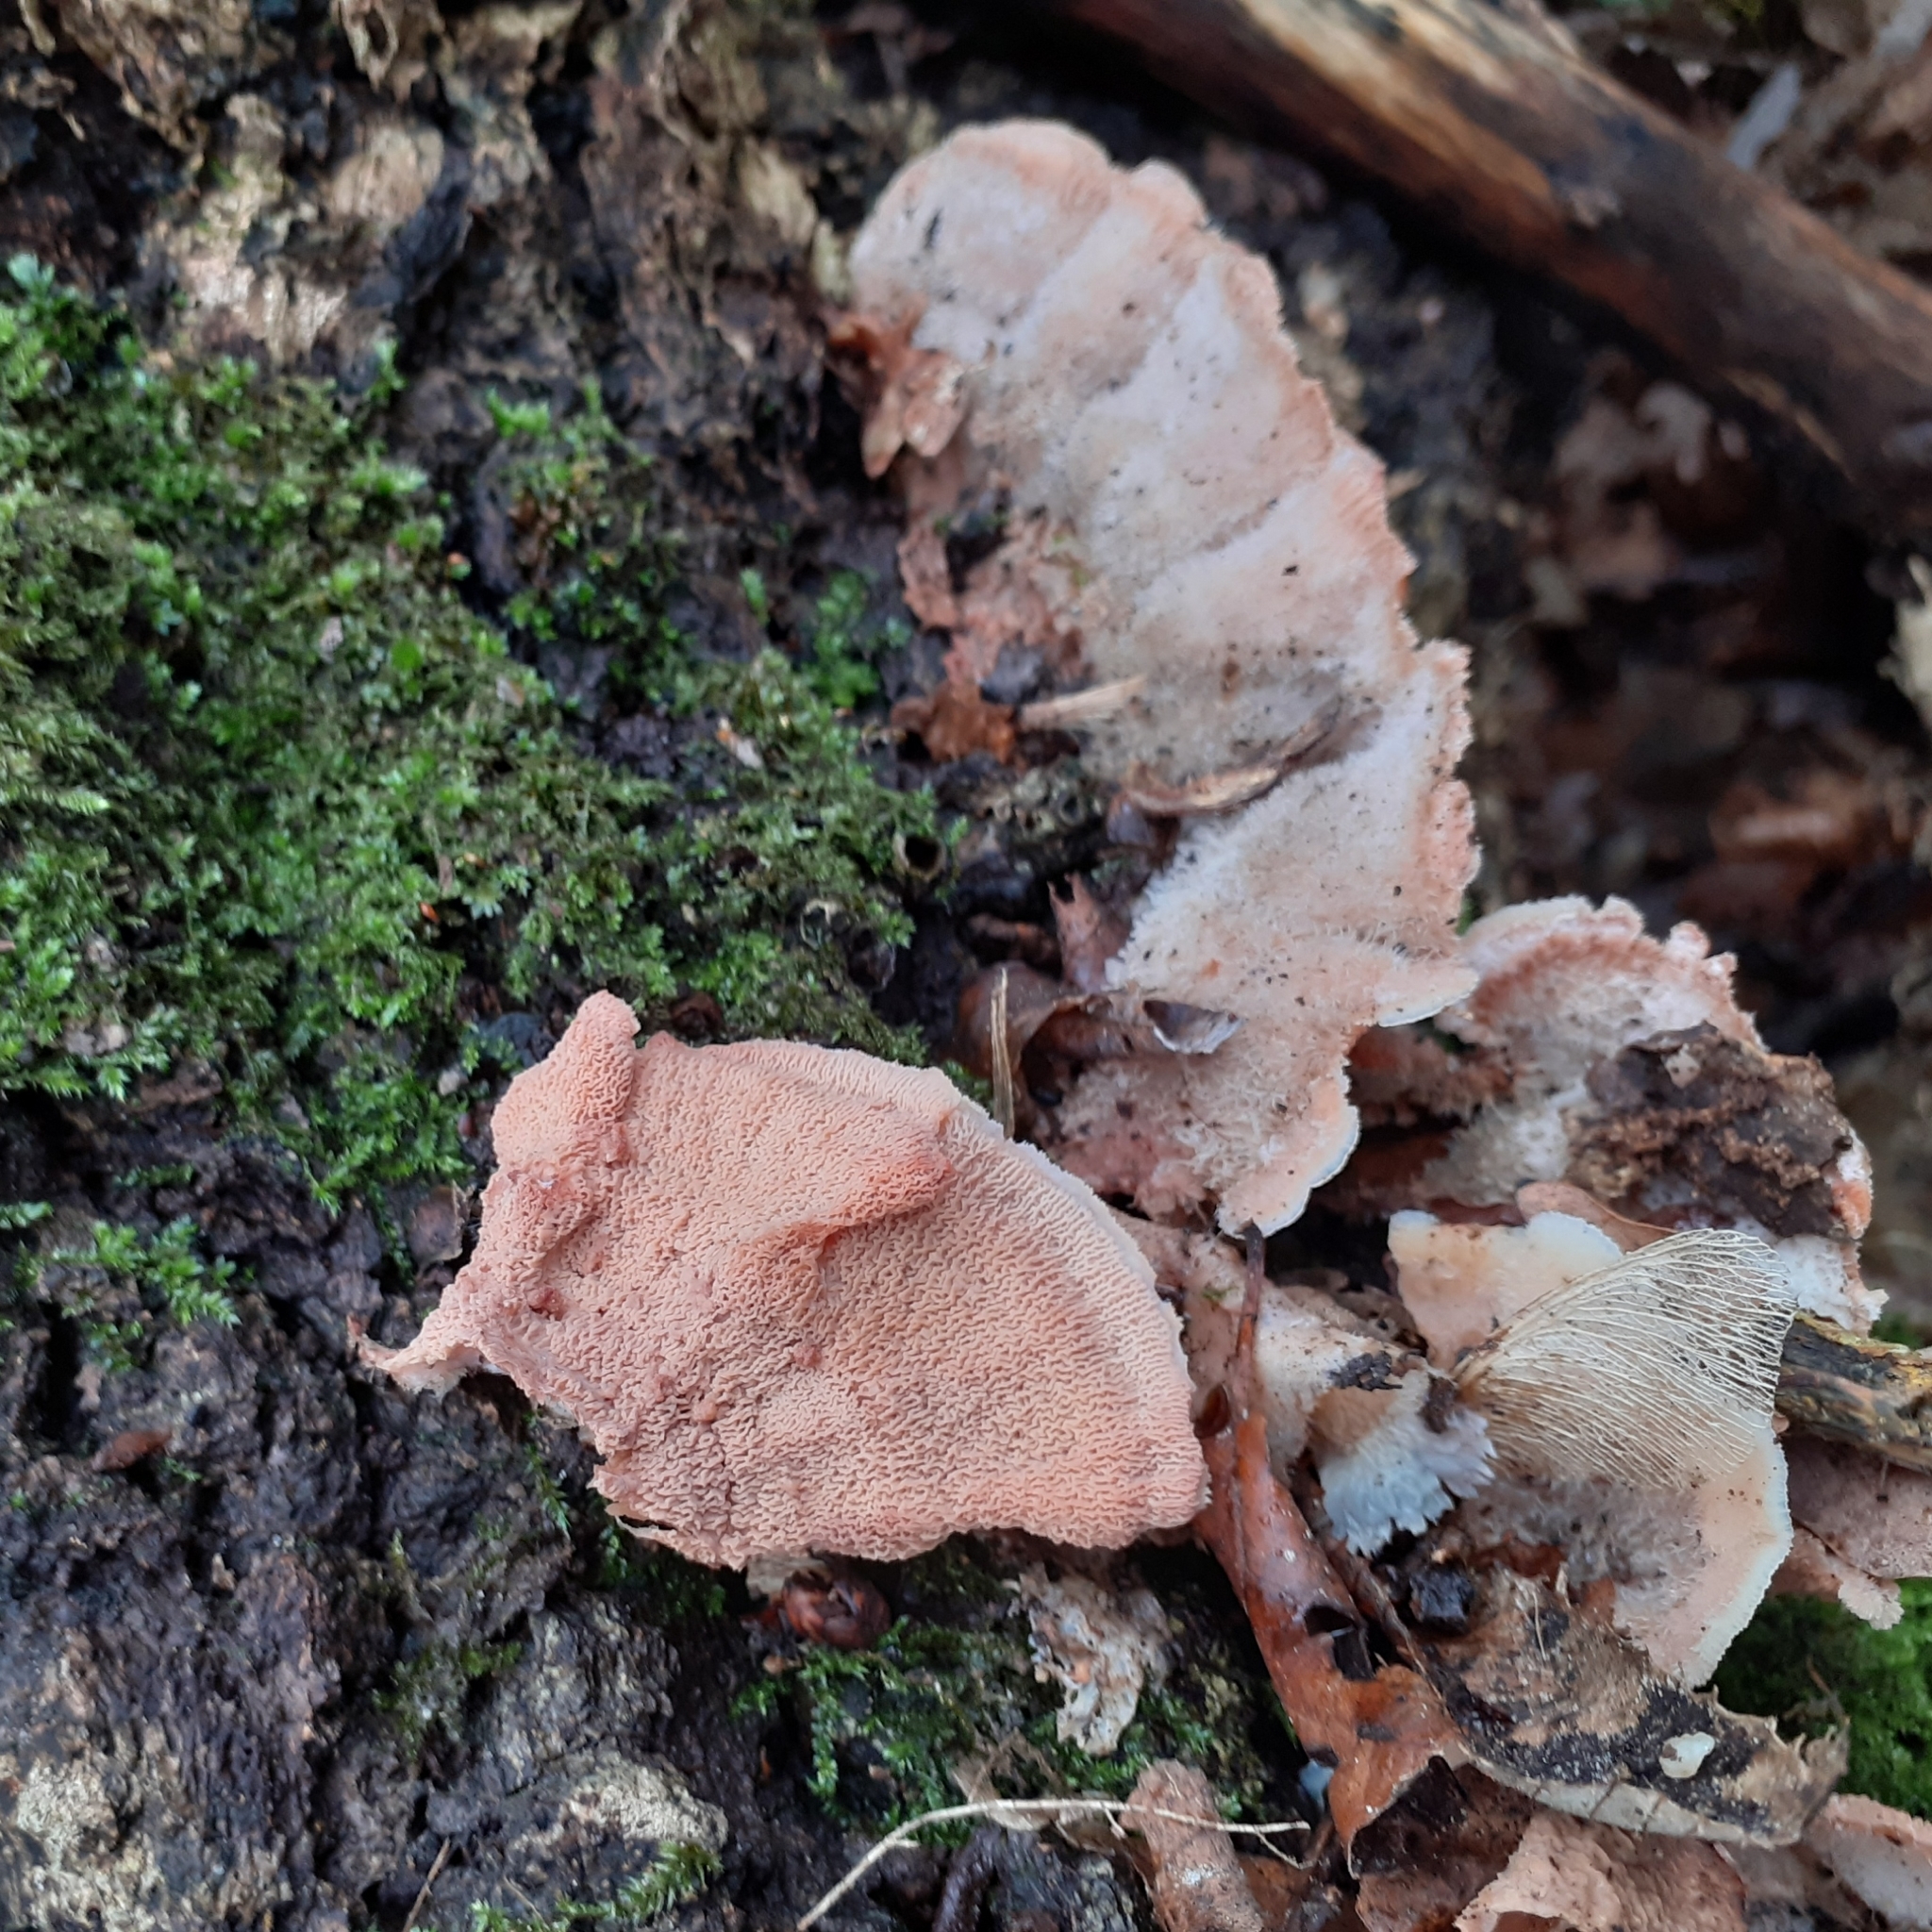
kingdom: Fungi
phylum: Basidiomycota
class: Agaricomycetes
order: Polyporales
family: Meruliaceae
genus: Phlebia
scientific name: Phlebia tremellosa
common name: Jelly rot
